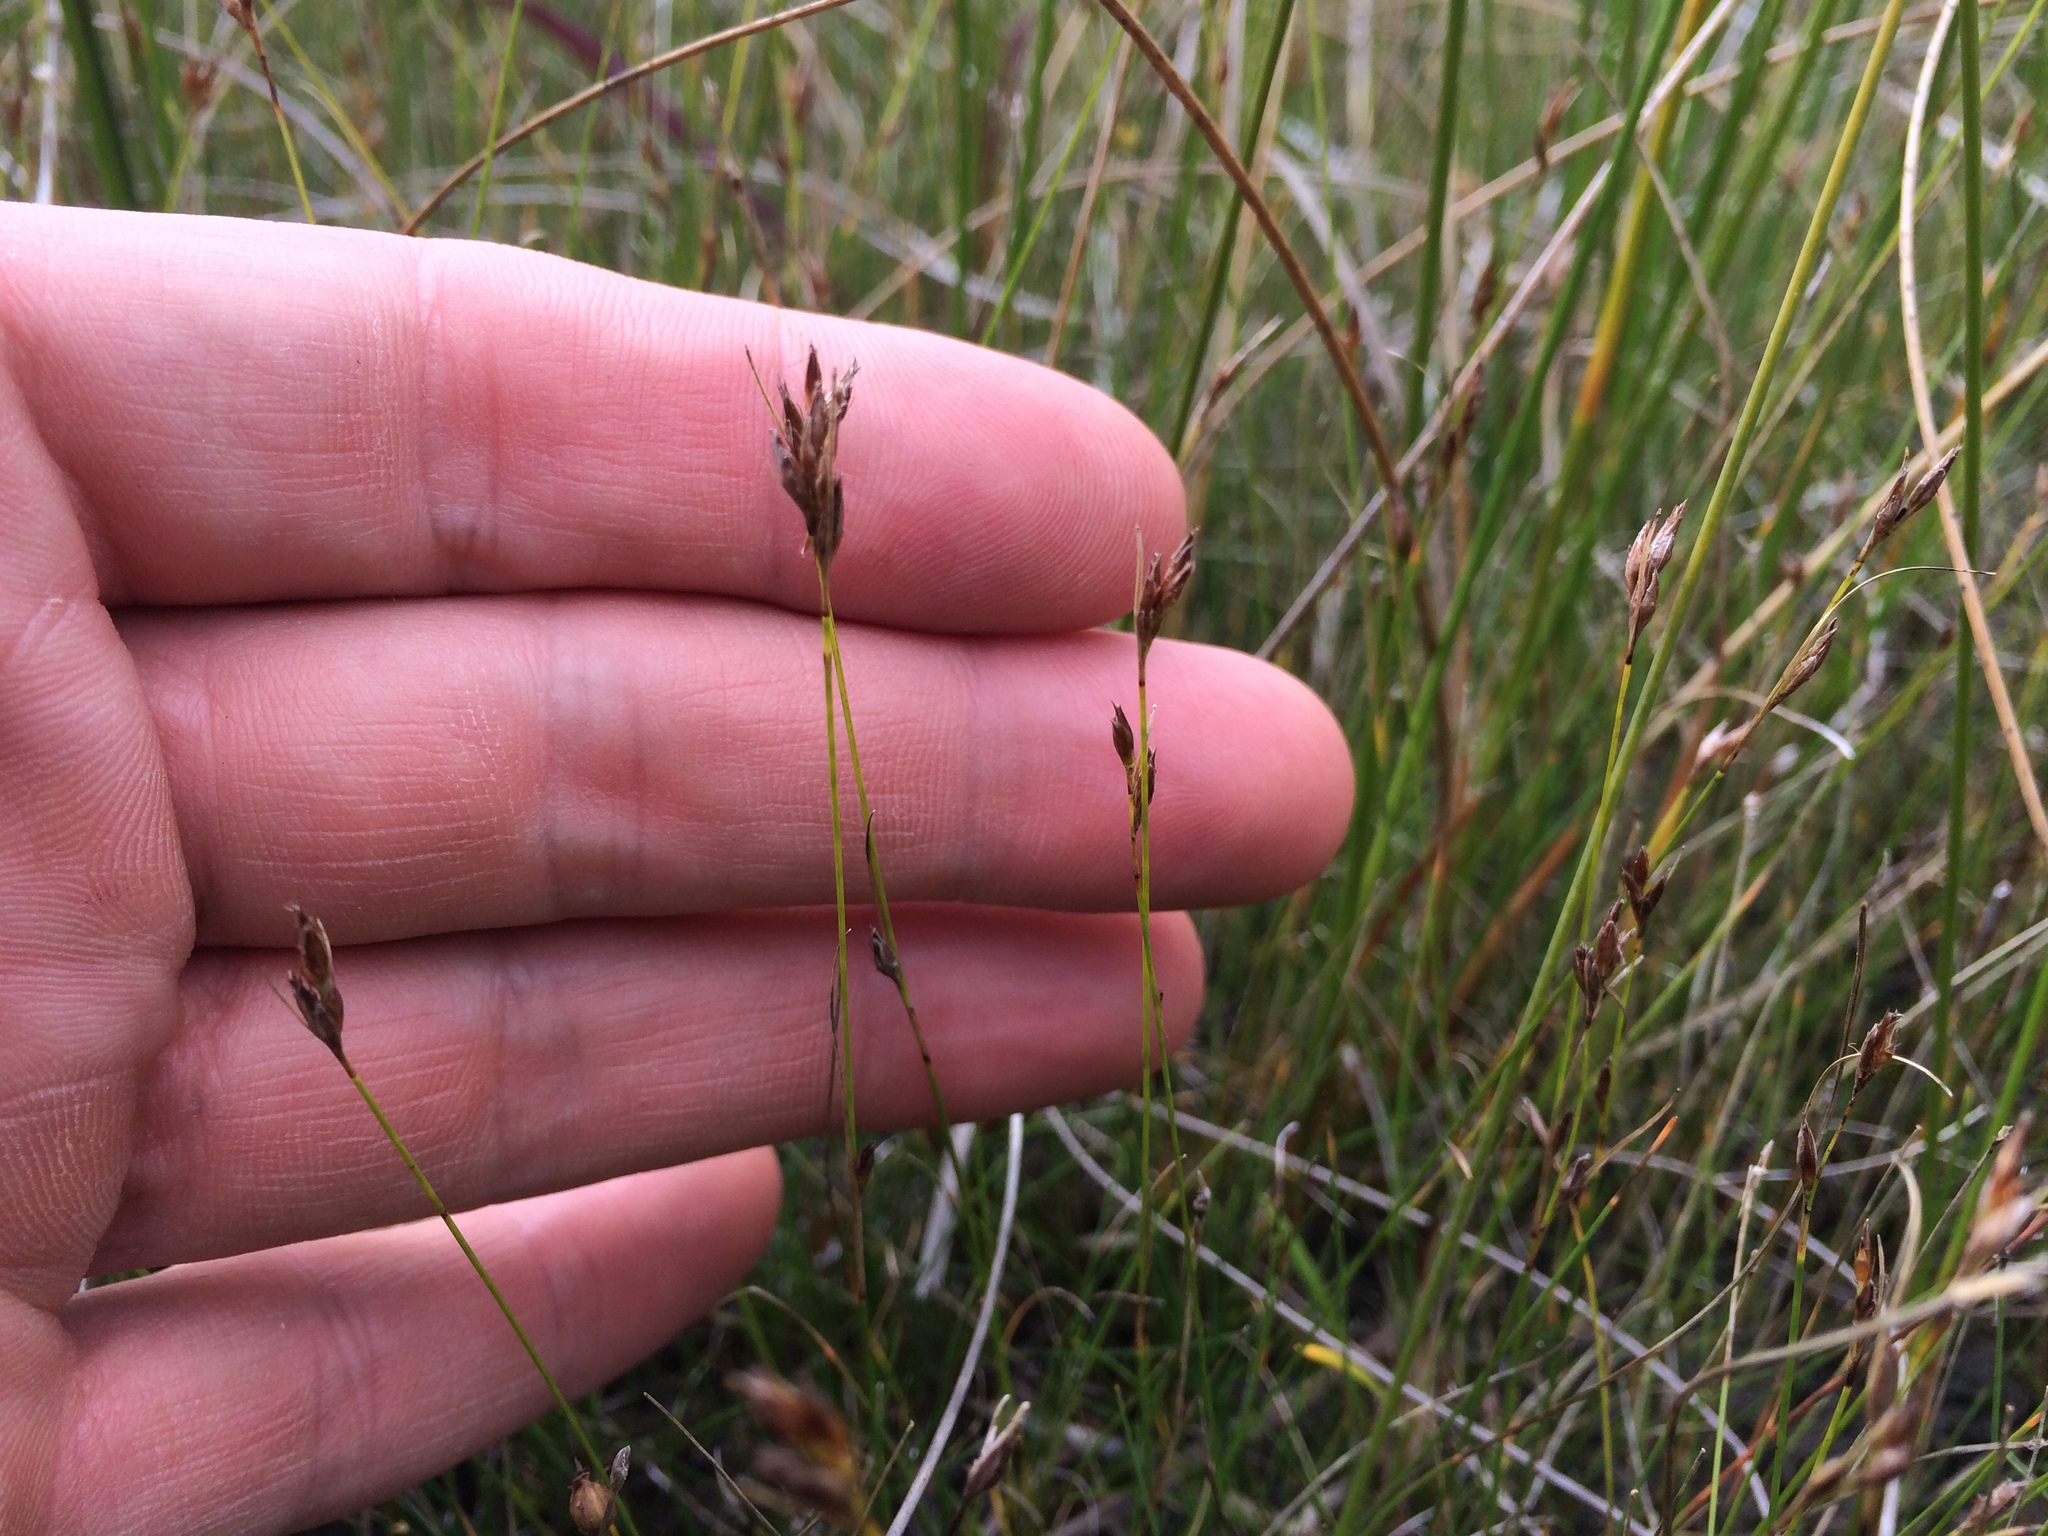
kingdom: Plantae
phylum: Tracheophyta
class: Liliopsida
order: Poales
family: Cyperaceae
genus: Rhynchospora
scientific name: Rhynchospora capillacea
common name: Capillary beakrush
